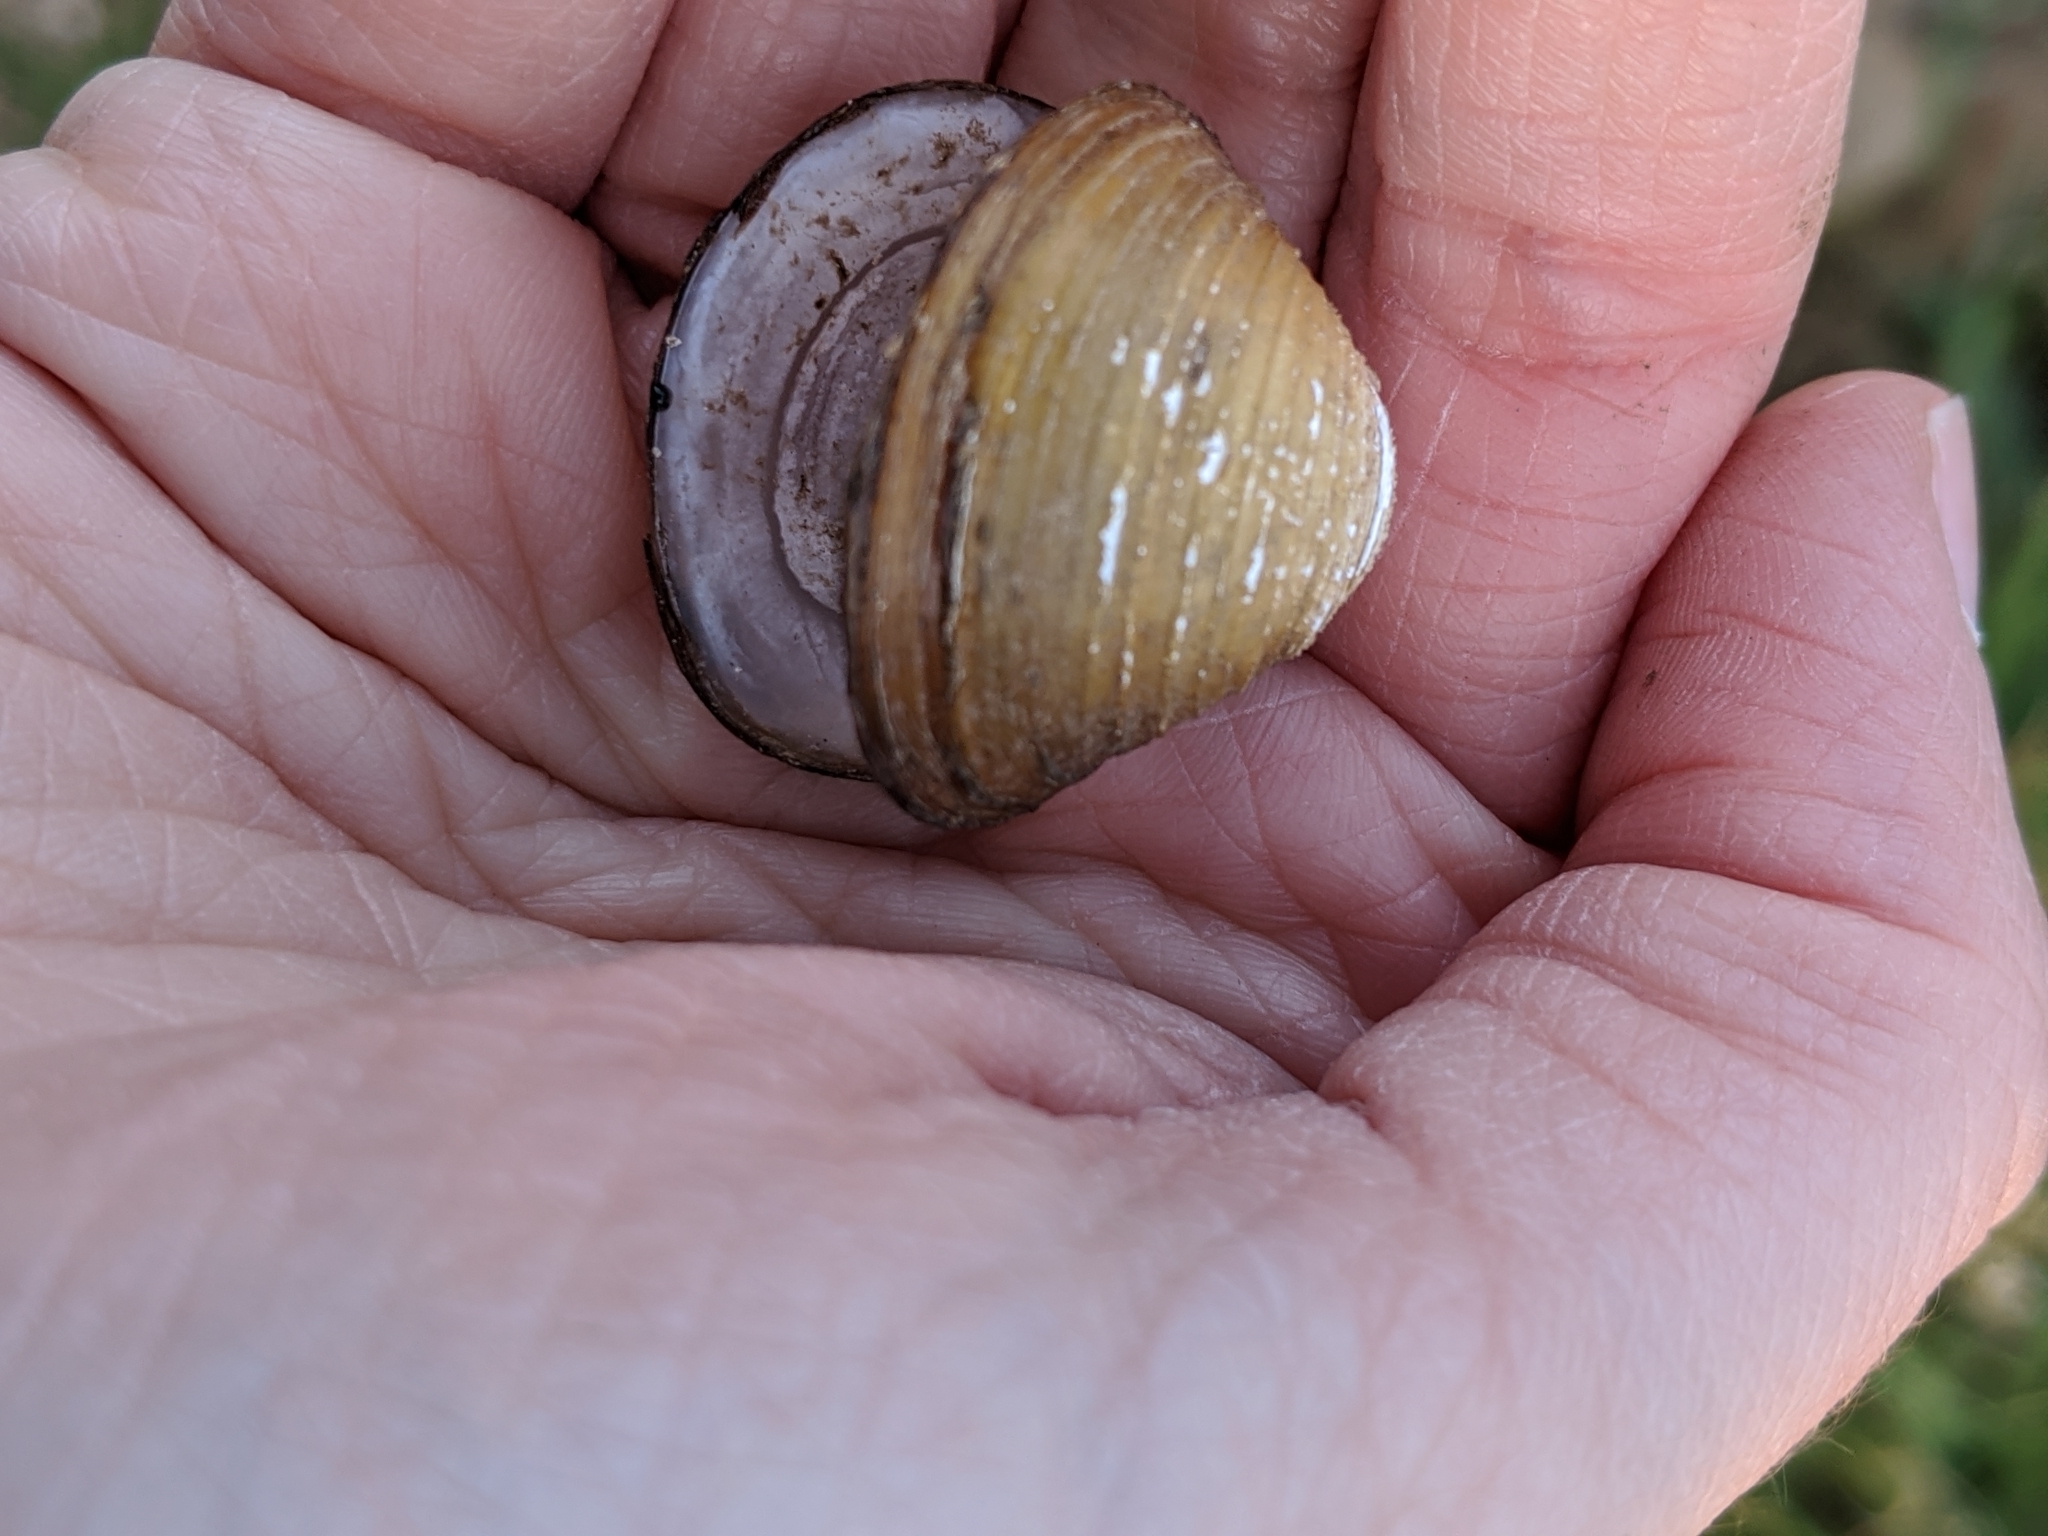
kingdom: Animalia
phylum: Mollusca
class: Bivalvia
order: Venerida
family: Cyrenidae
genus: Corbicula
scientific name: Corbicula fluminea
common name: Asian clam
